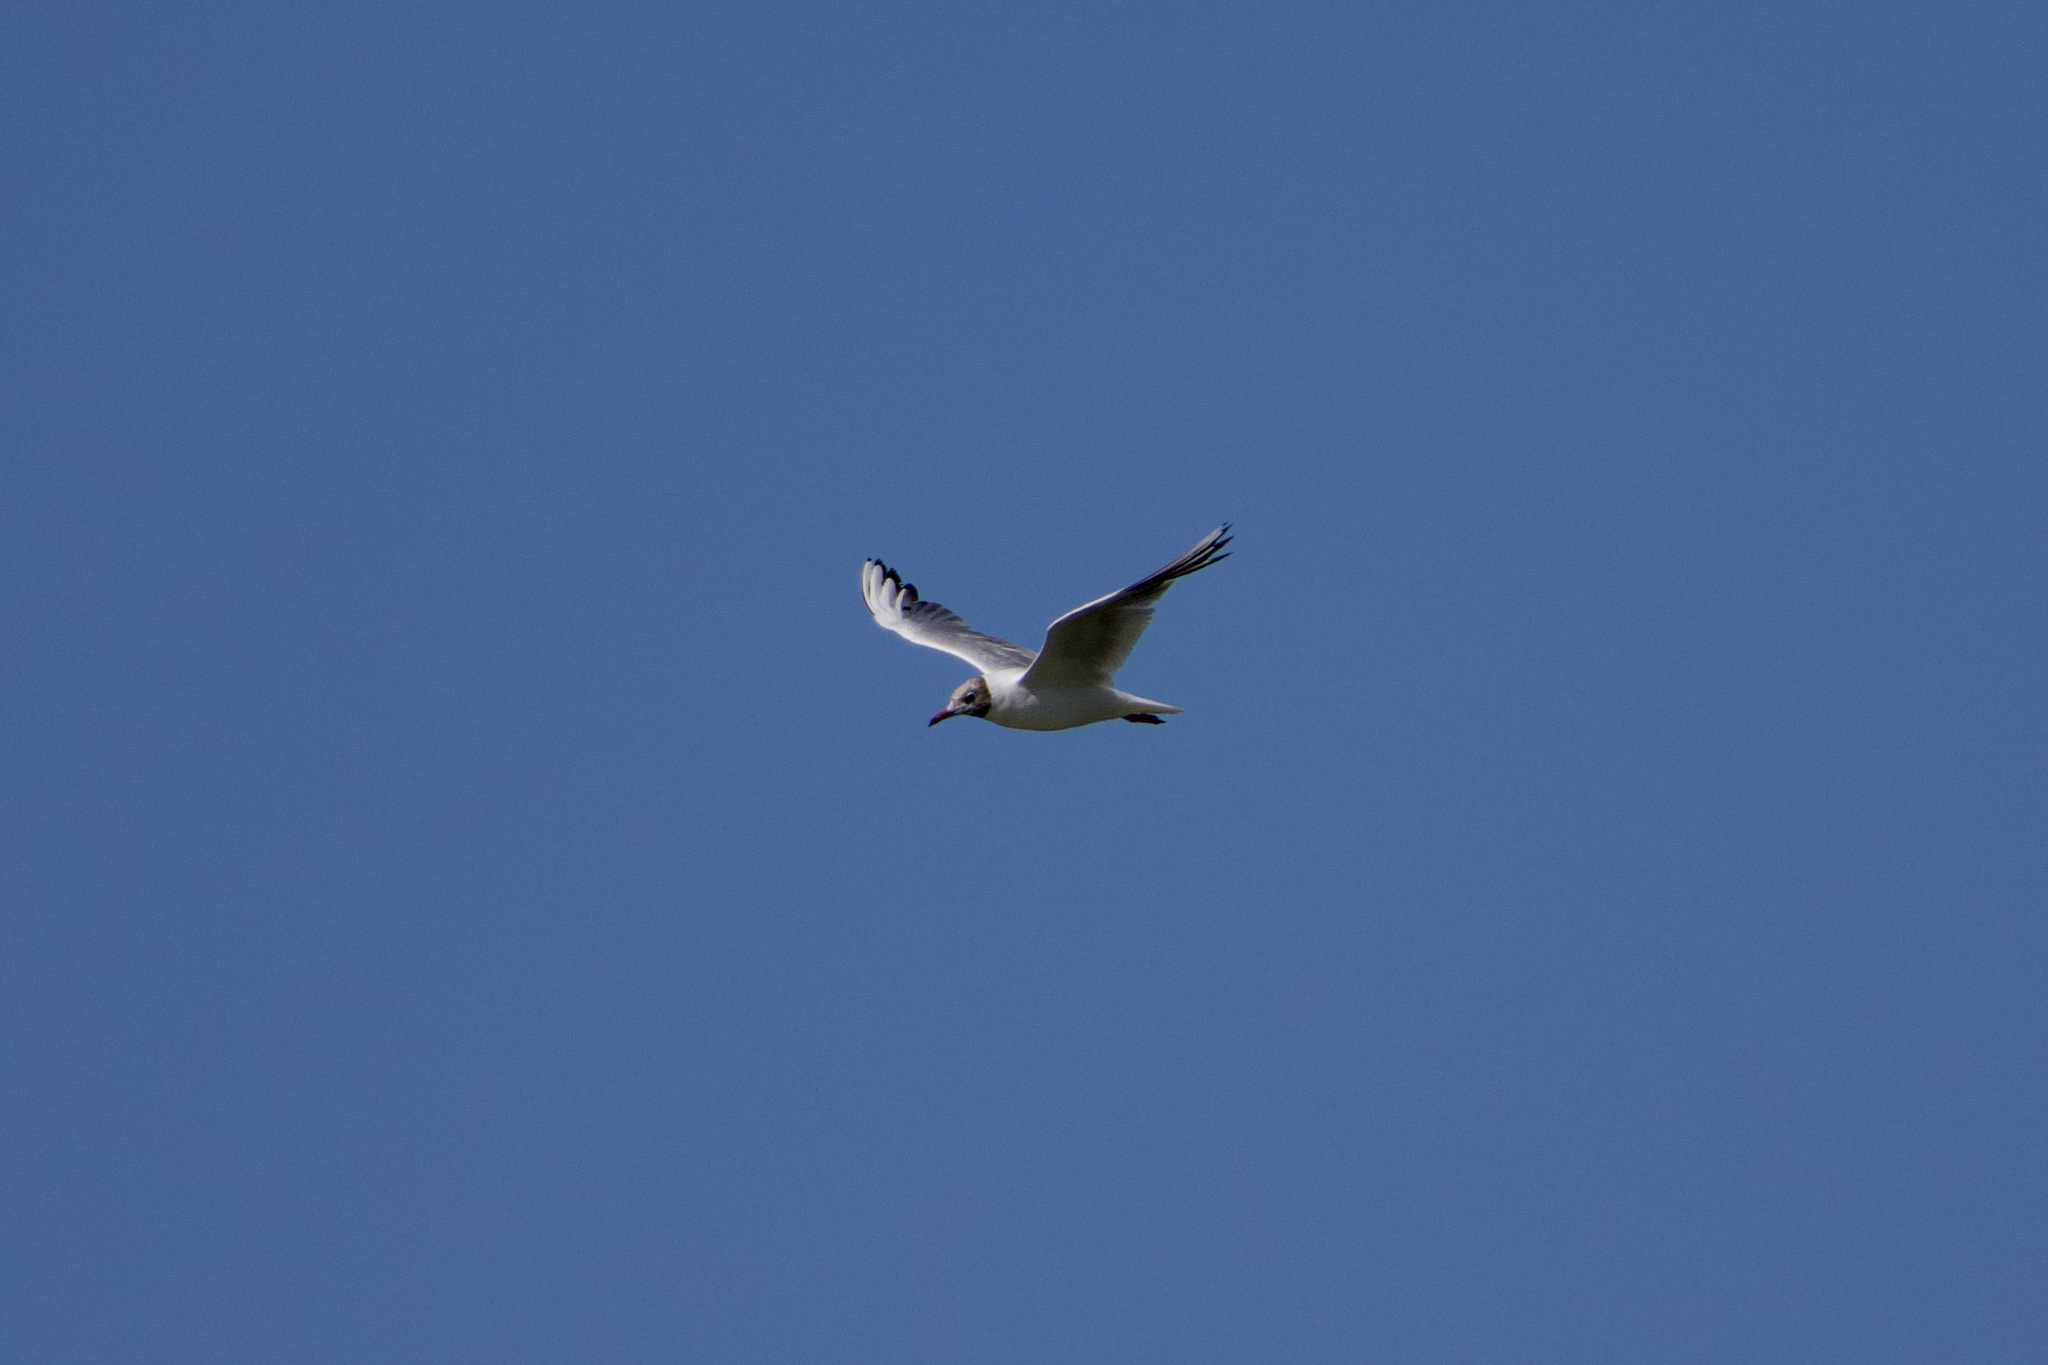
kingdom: Animalia
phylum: Chordata
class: Aves
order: Charadriiformes
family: Laridae
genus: Chroicocephalus
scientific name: Chroicocephalus ridibundus
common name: Black-headed gull
